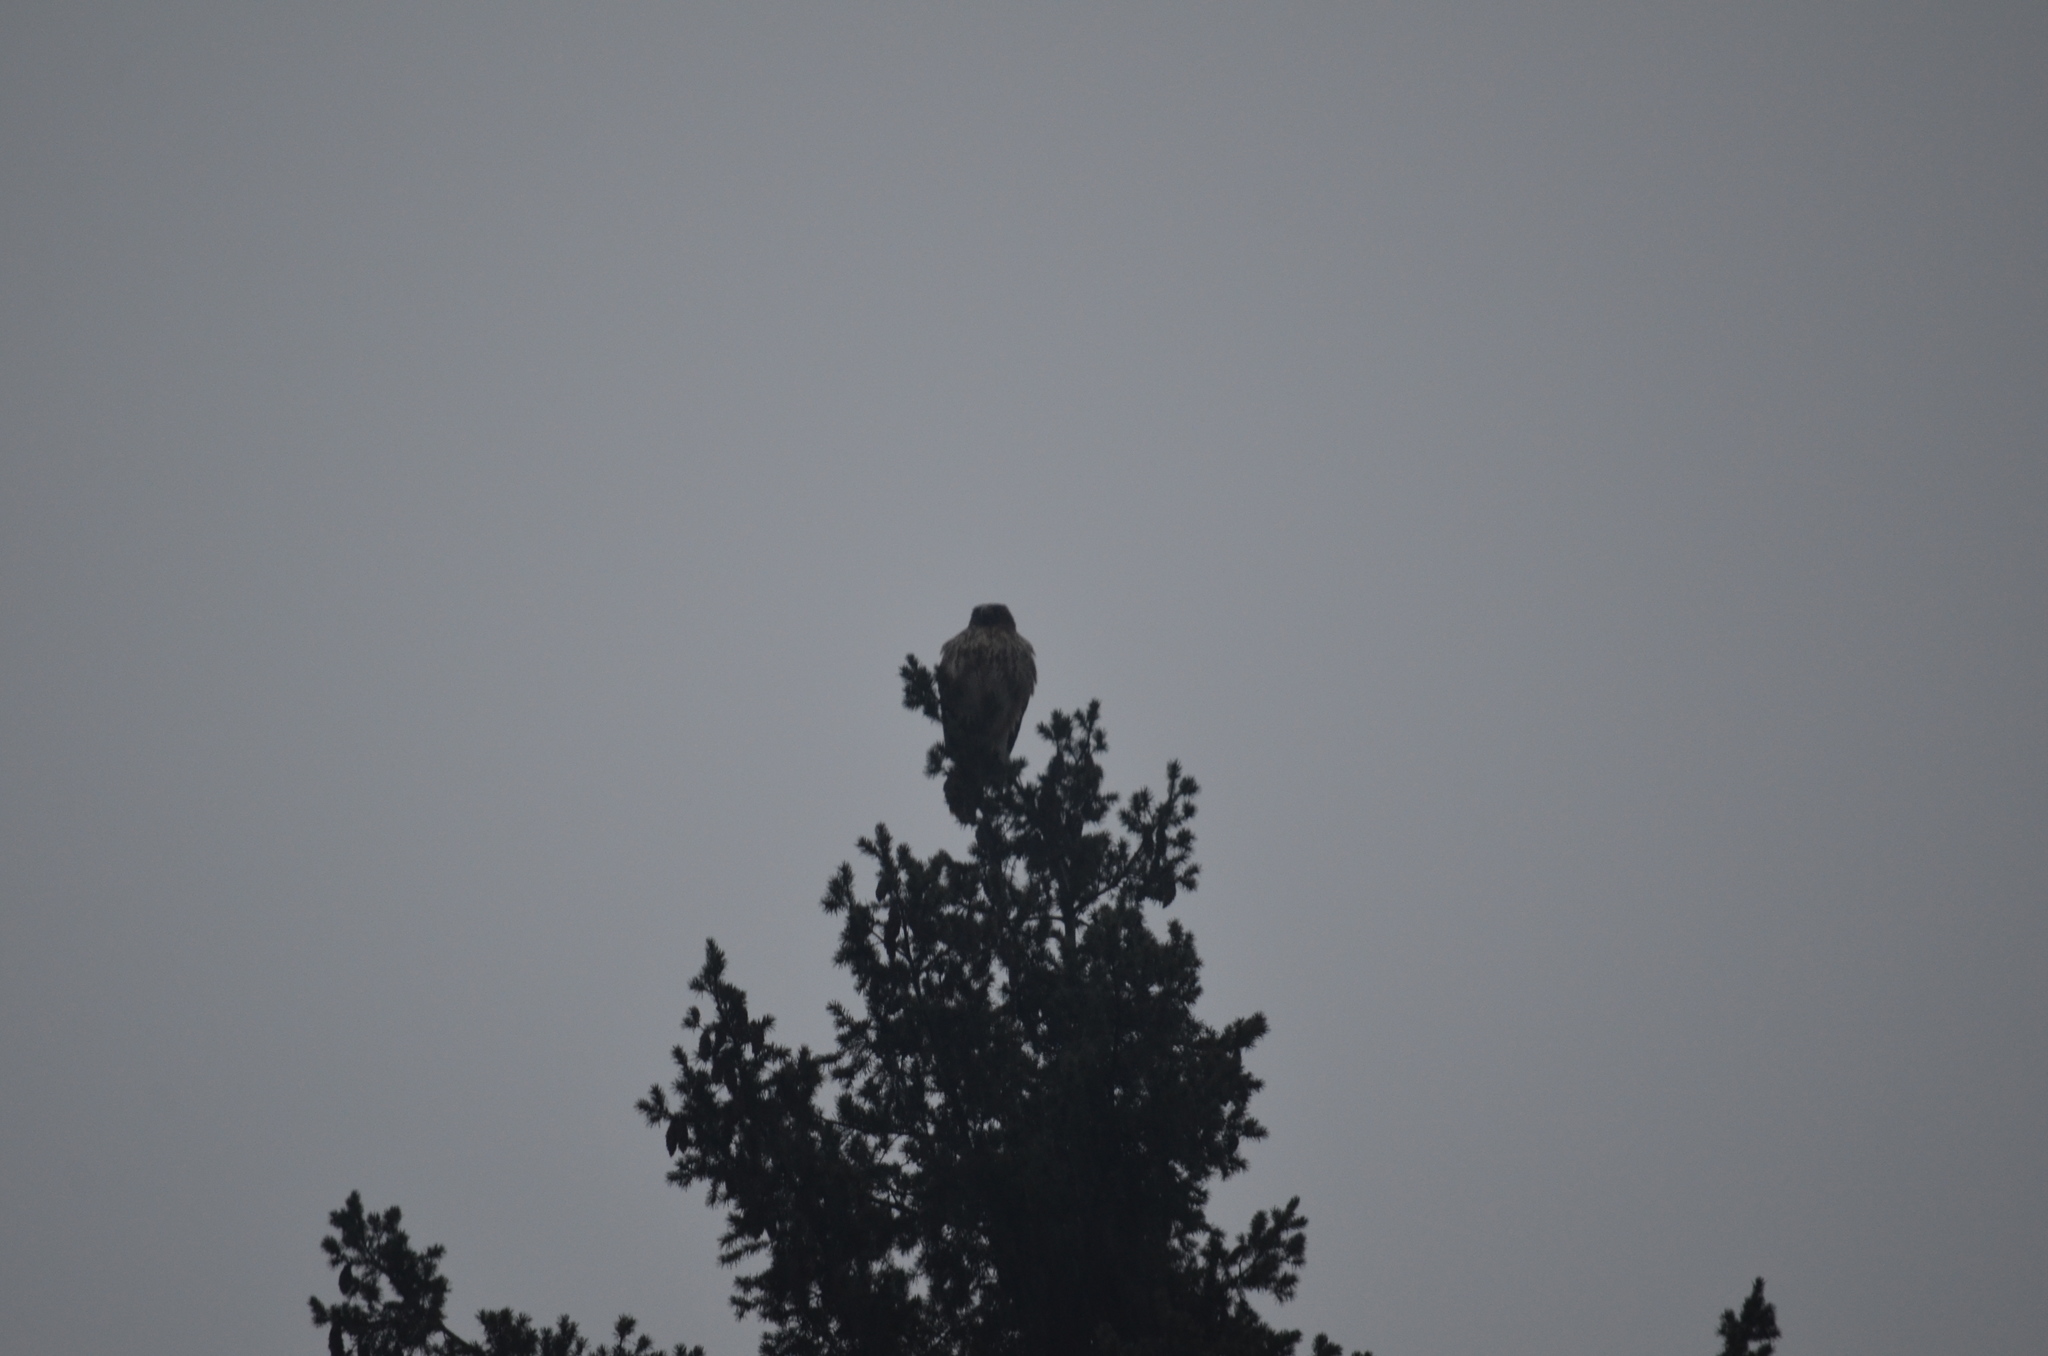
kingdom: Animalia
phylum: Chordata
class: Aves
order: Accipitriformes
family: Accipitridae
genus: Buteo
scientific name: Buteo jamaicensis
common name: Red-tailed hawk
